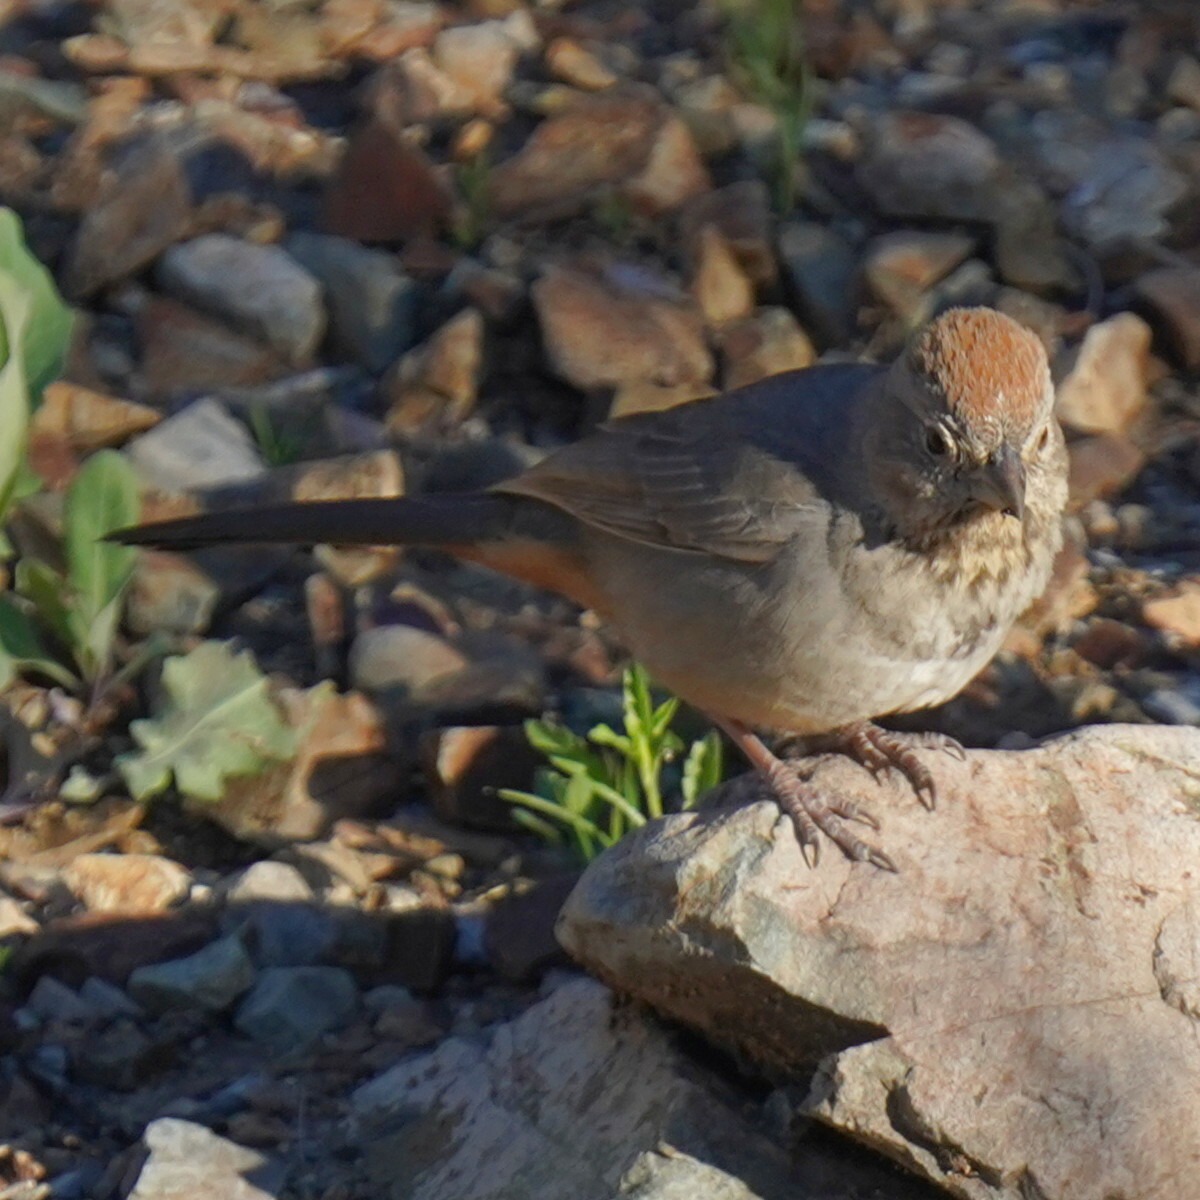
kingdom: Animalia
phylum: Chordata
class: Aves
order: Passeriformes
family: Passerellidae
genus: Melozone
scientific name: Melozone fusca
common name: Canyon towhee
